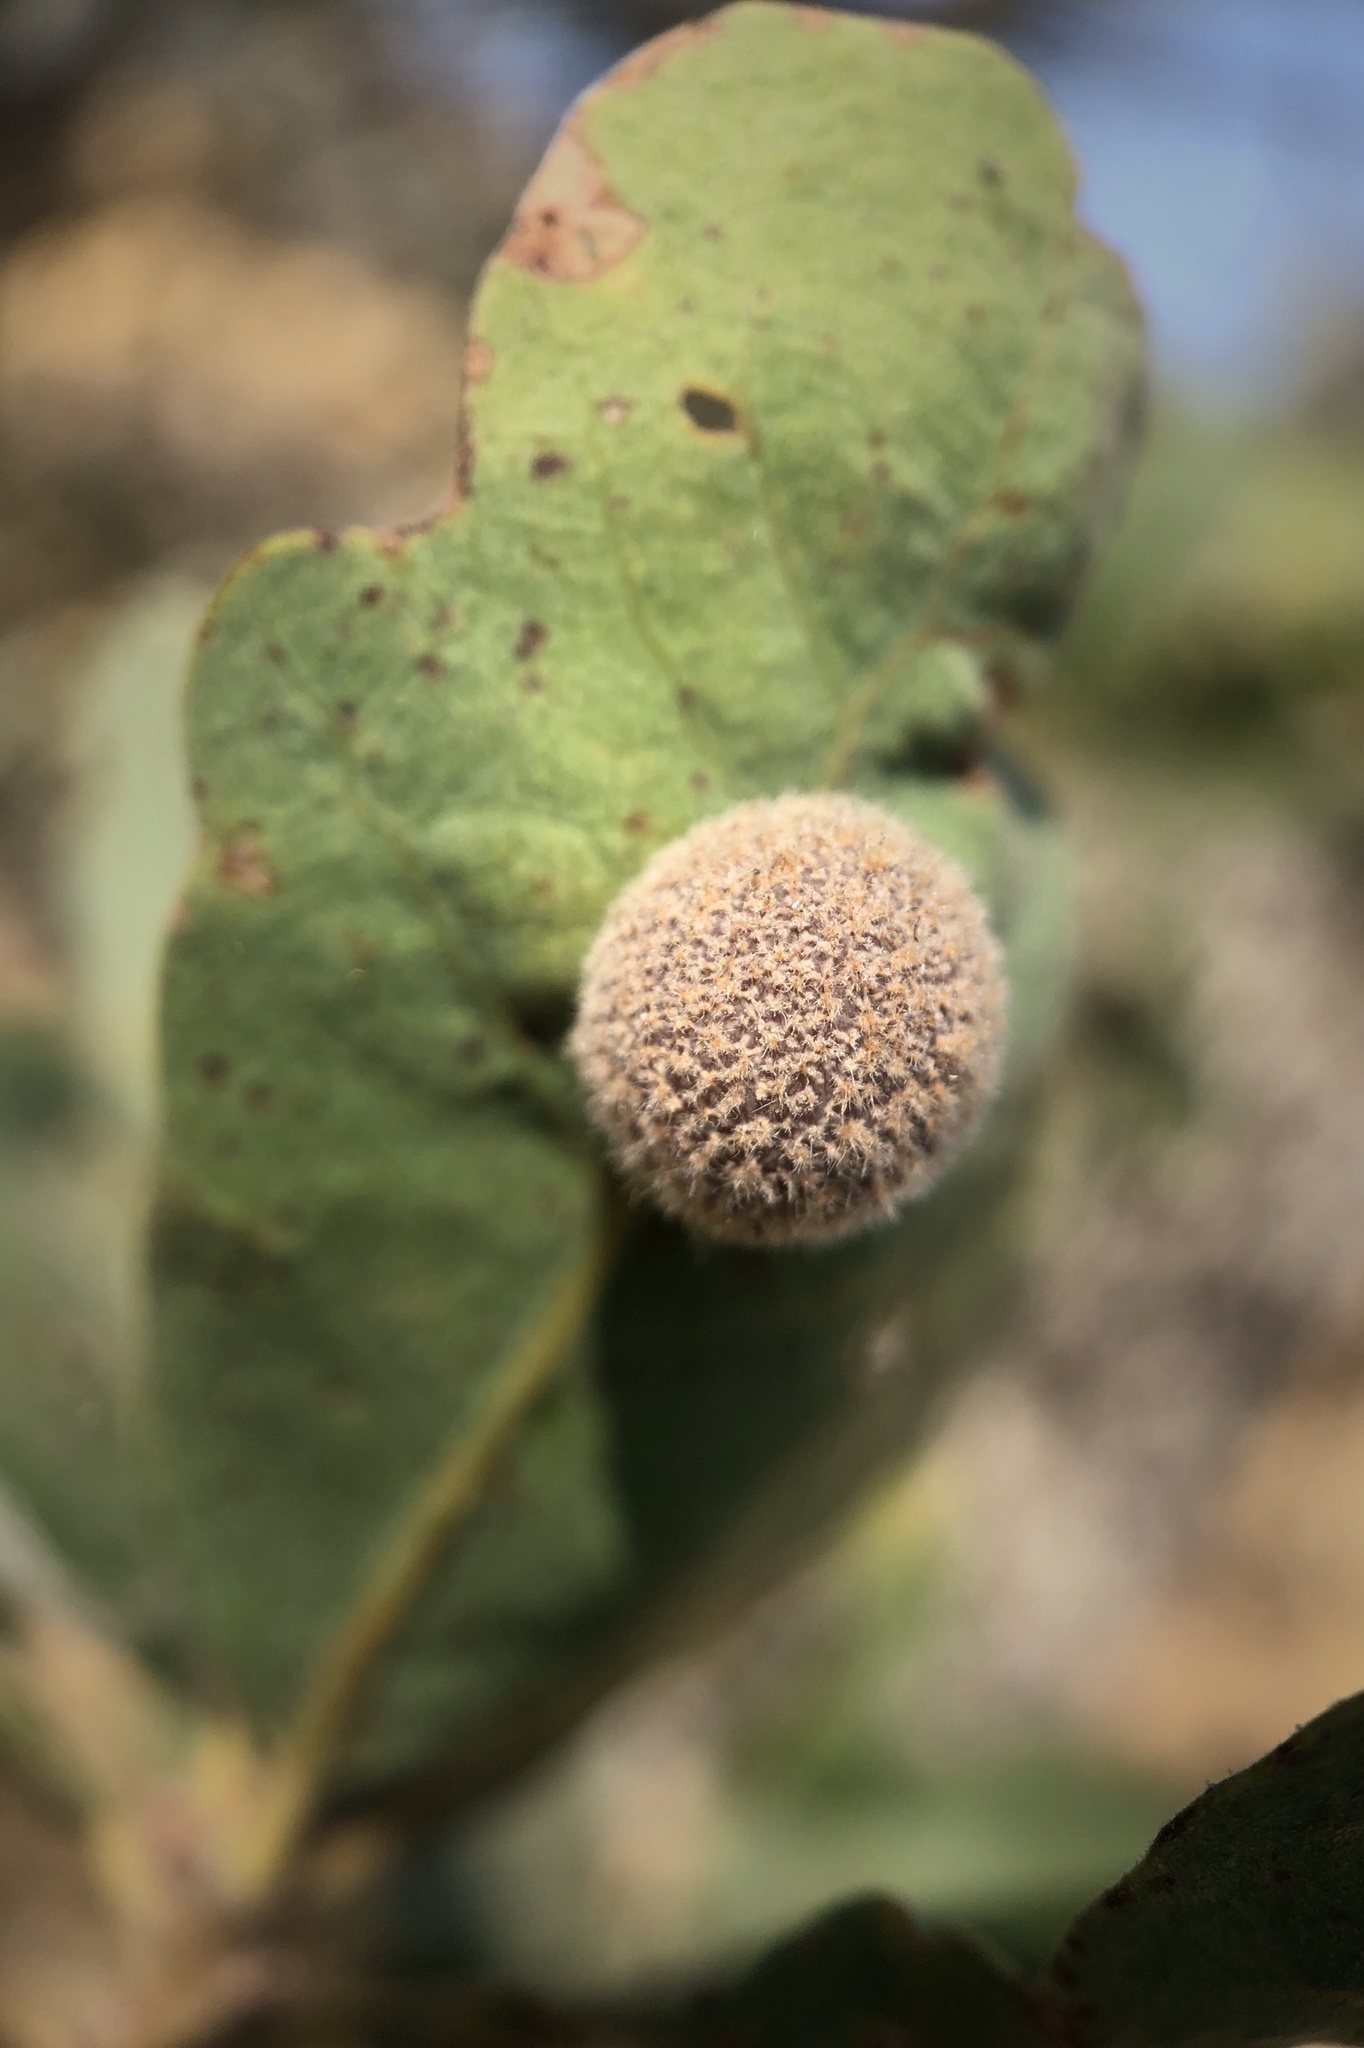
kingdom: Animalia
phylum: Arthropoda
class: Insecta
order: Hymenoptera
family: Cynipidae
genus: Cynips
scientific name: Cynips
